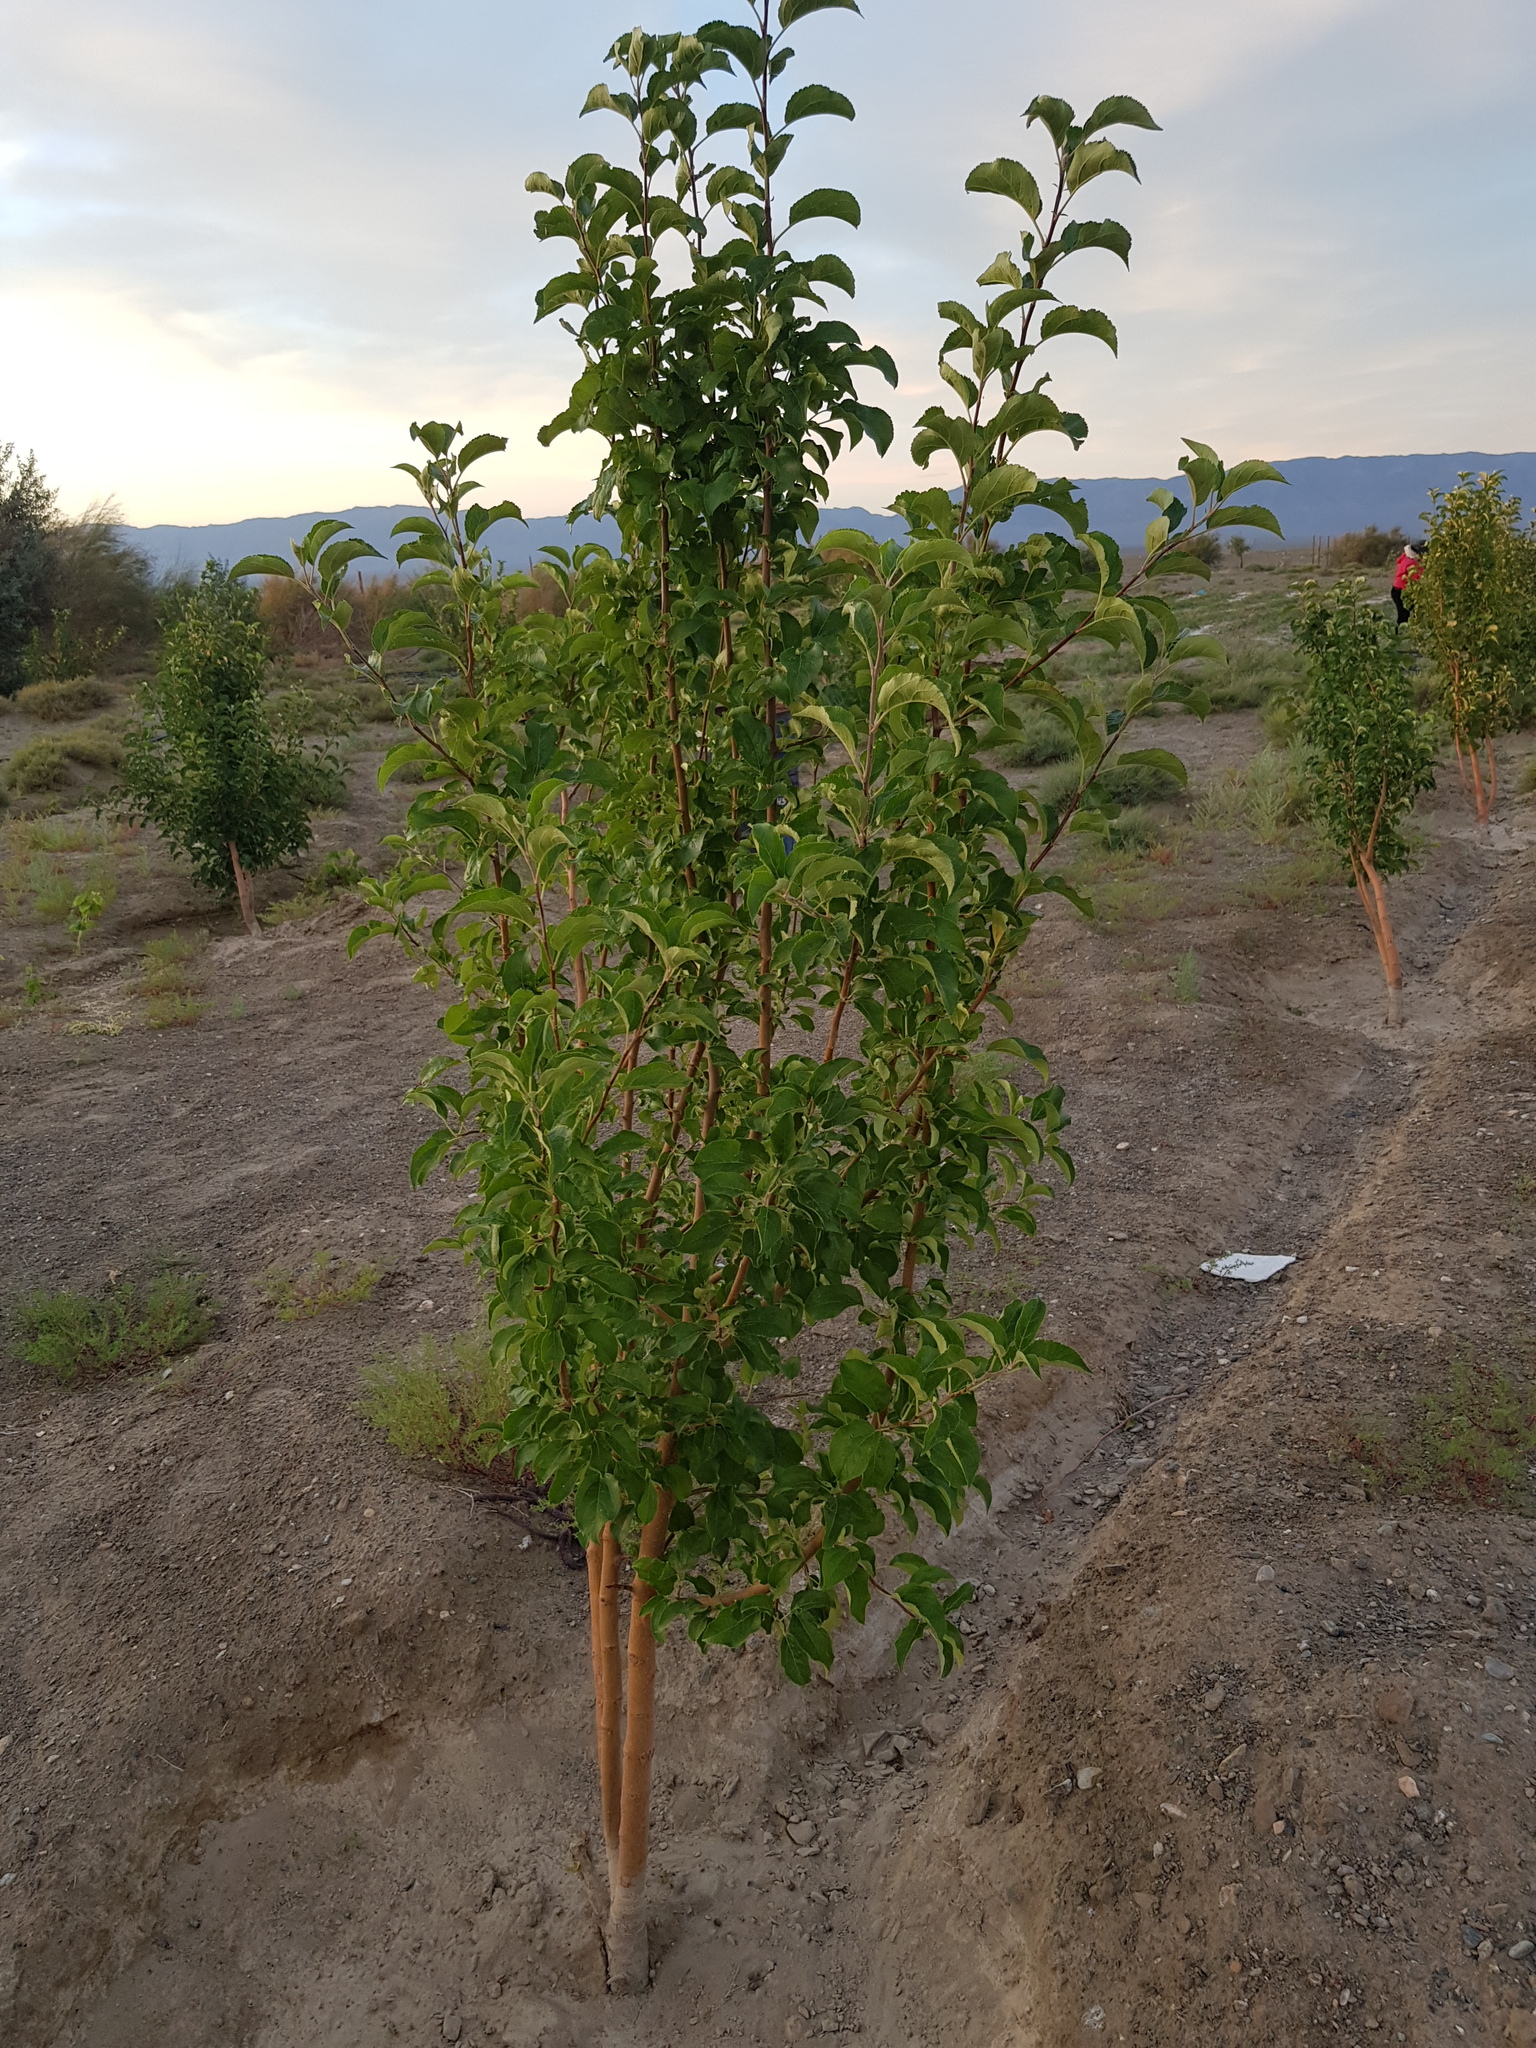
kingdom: Plantae
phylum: Tracheophyta
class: Magnoliopsida
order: Rosales
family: Rosaceae
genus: Malus
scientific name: Malus prunifolia
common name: Chinese apple
